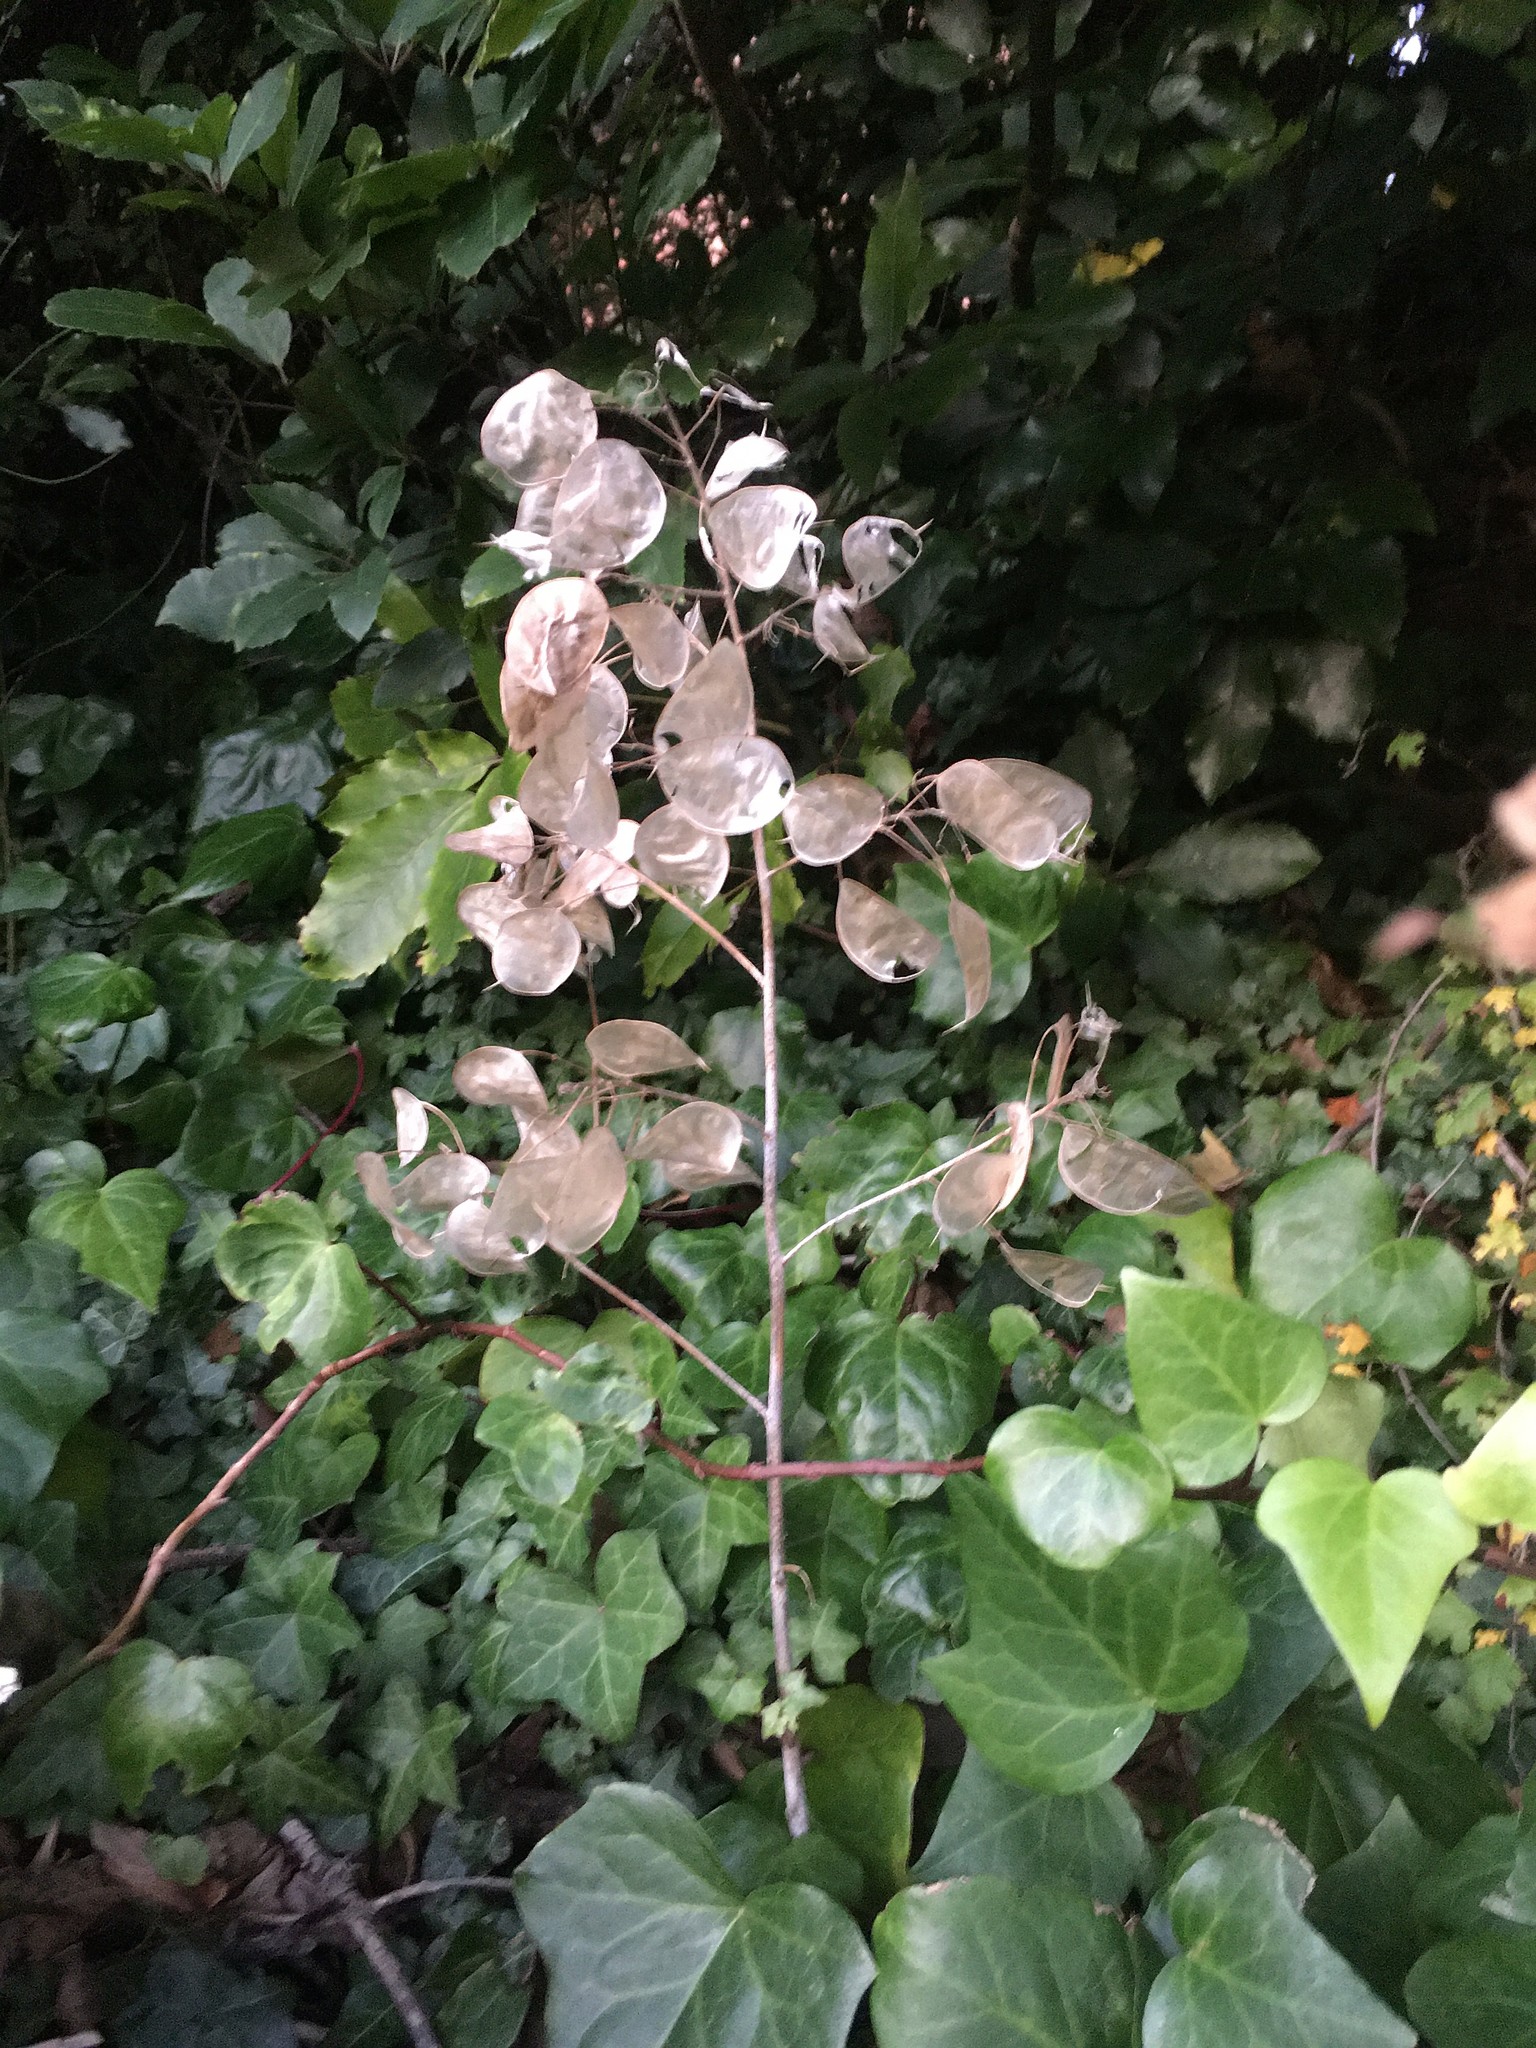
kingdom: Plantae
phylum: Tracheophyta
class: Magnoliopsida
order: Brassicales
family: Brassicaceae
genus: Lunaria
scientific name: Lunaria annua
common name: Honesty
